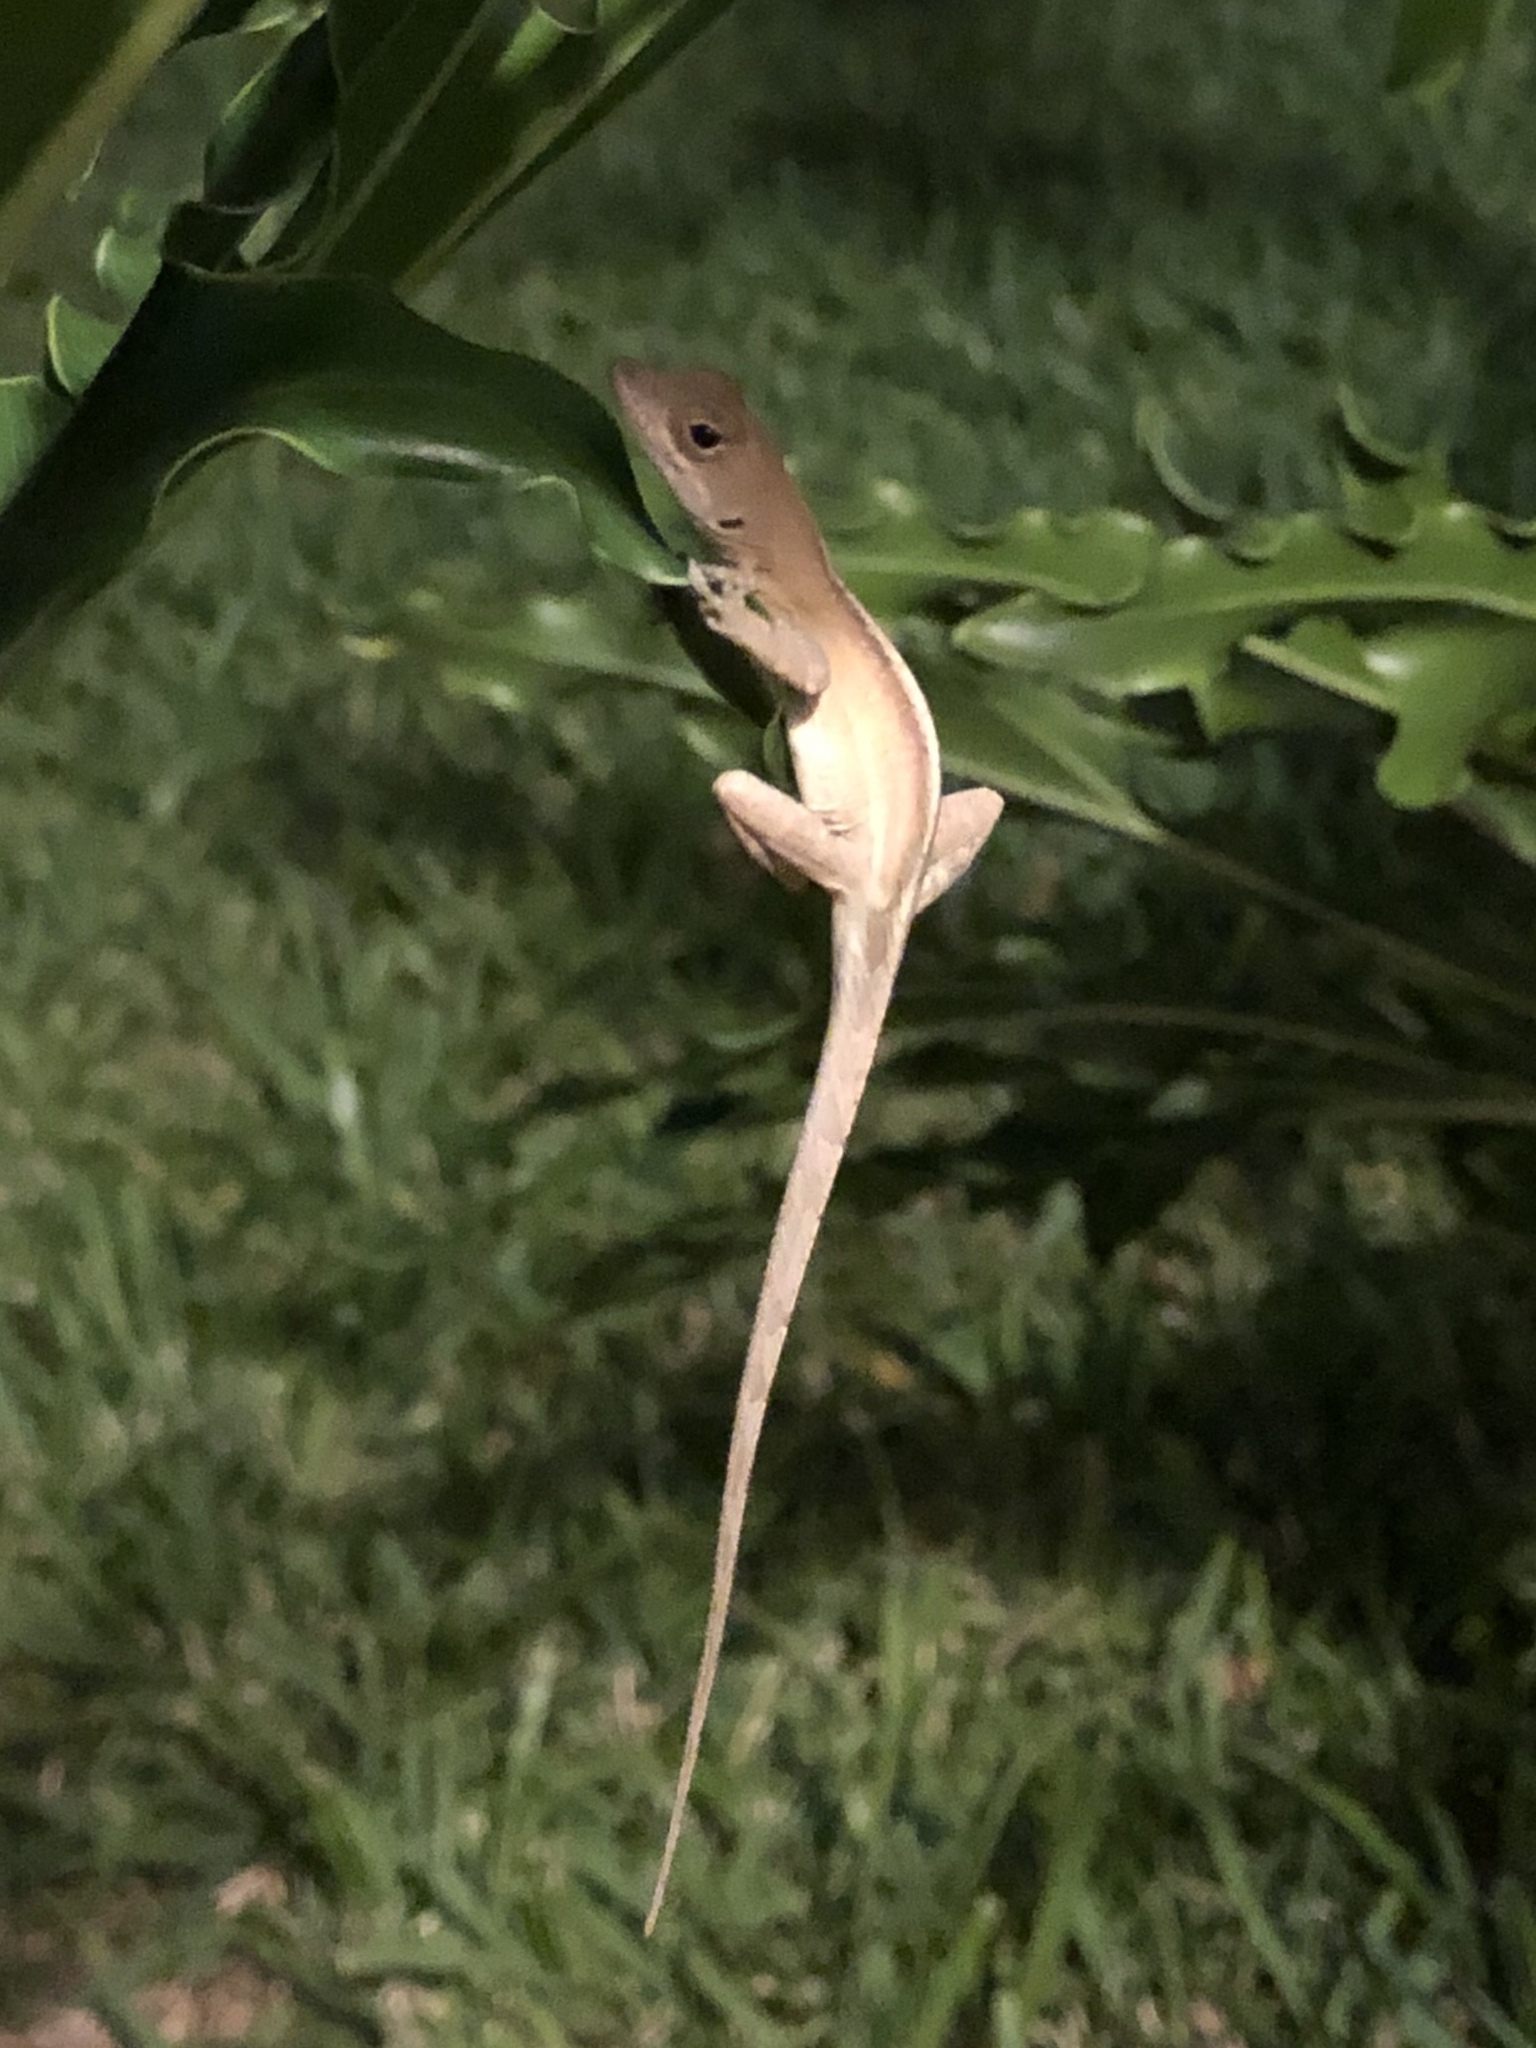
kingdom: Animalia
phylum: Chordata
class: Squamata
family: Dactyloidae
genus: Anolis
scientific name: Anolis sagrei
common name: Brown anole
